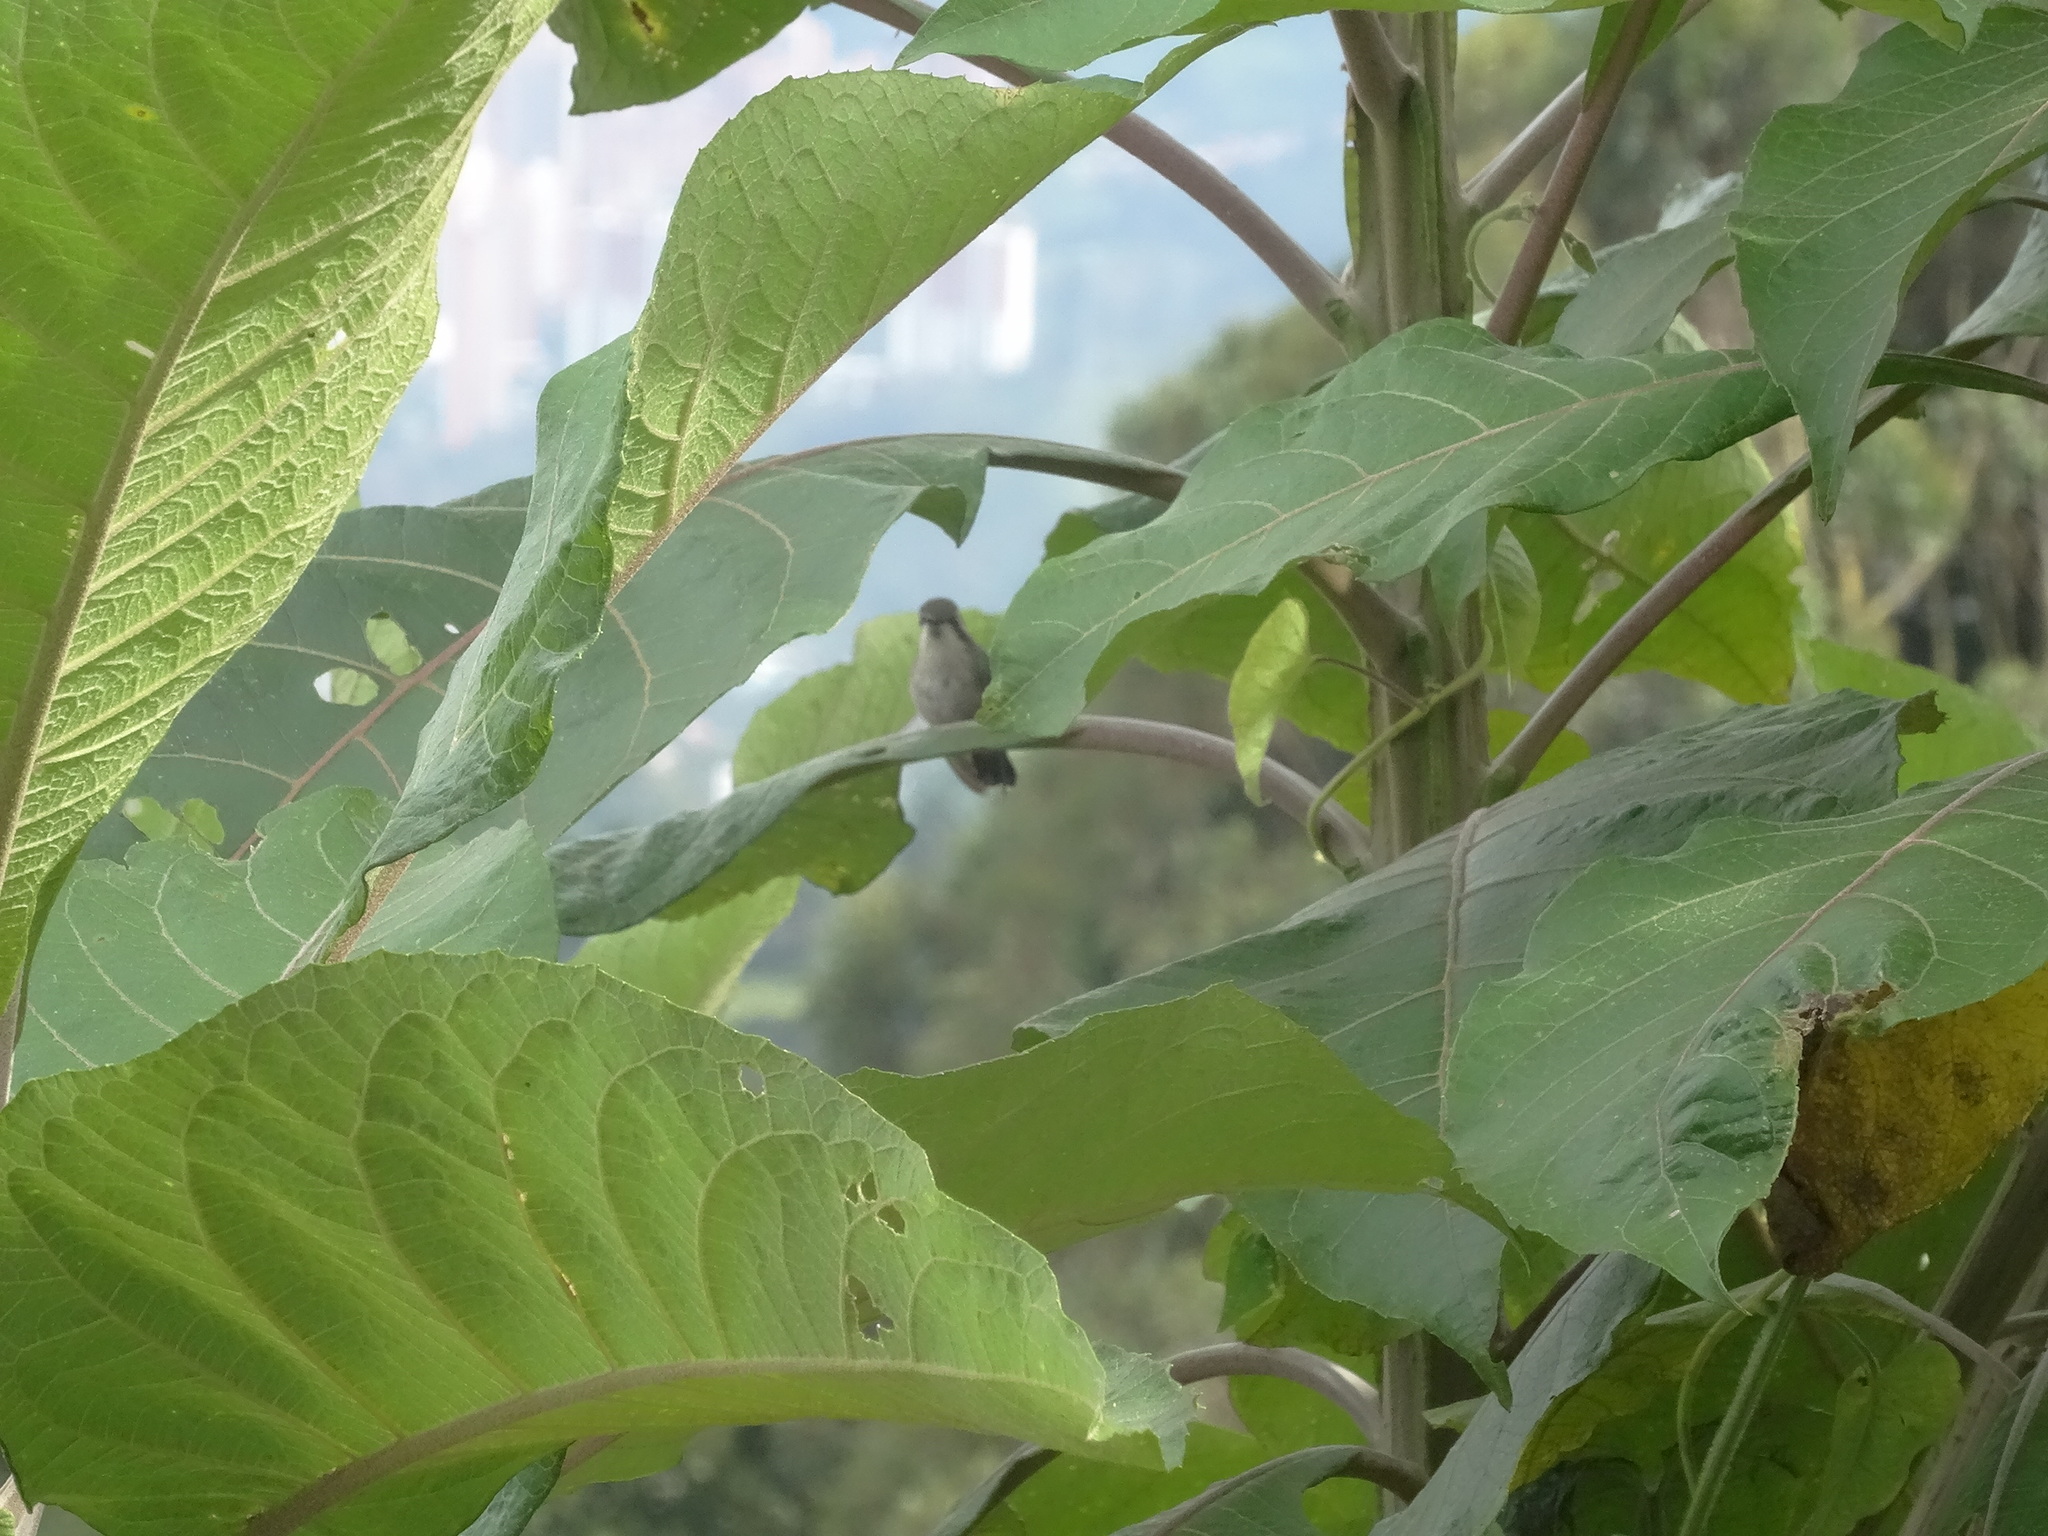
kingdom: Animalia
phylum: Chordata
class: Aves
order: Apodiformes
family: Trochilidae
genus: Chlorostilbon
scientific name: Chlorostilbon melanorhynchus
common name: Western emerald
